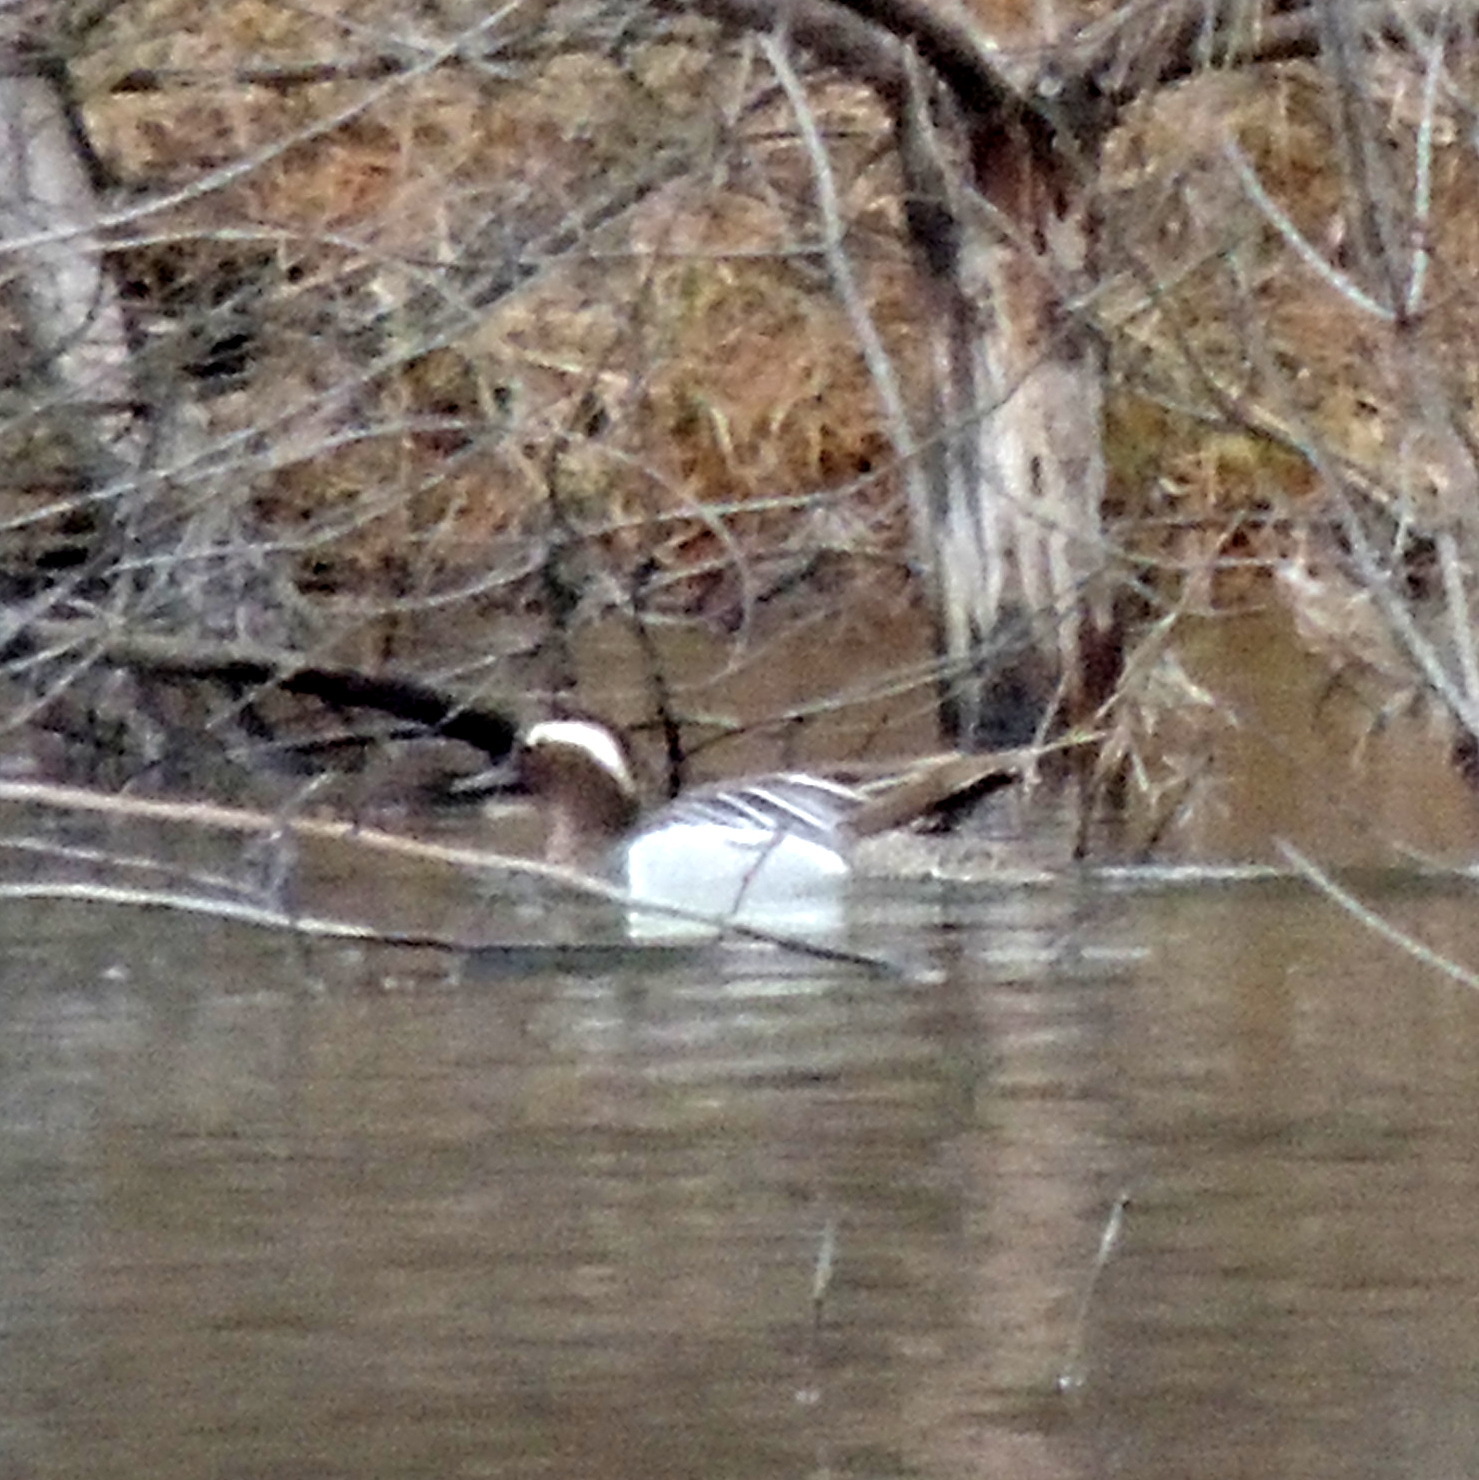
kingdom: Animalia
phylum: Chordata
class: Aves
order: Anseriformes
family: Anatidae
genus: Spatula
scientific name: Spatula querquedula
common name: Garganey
